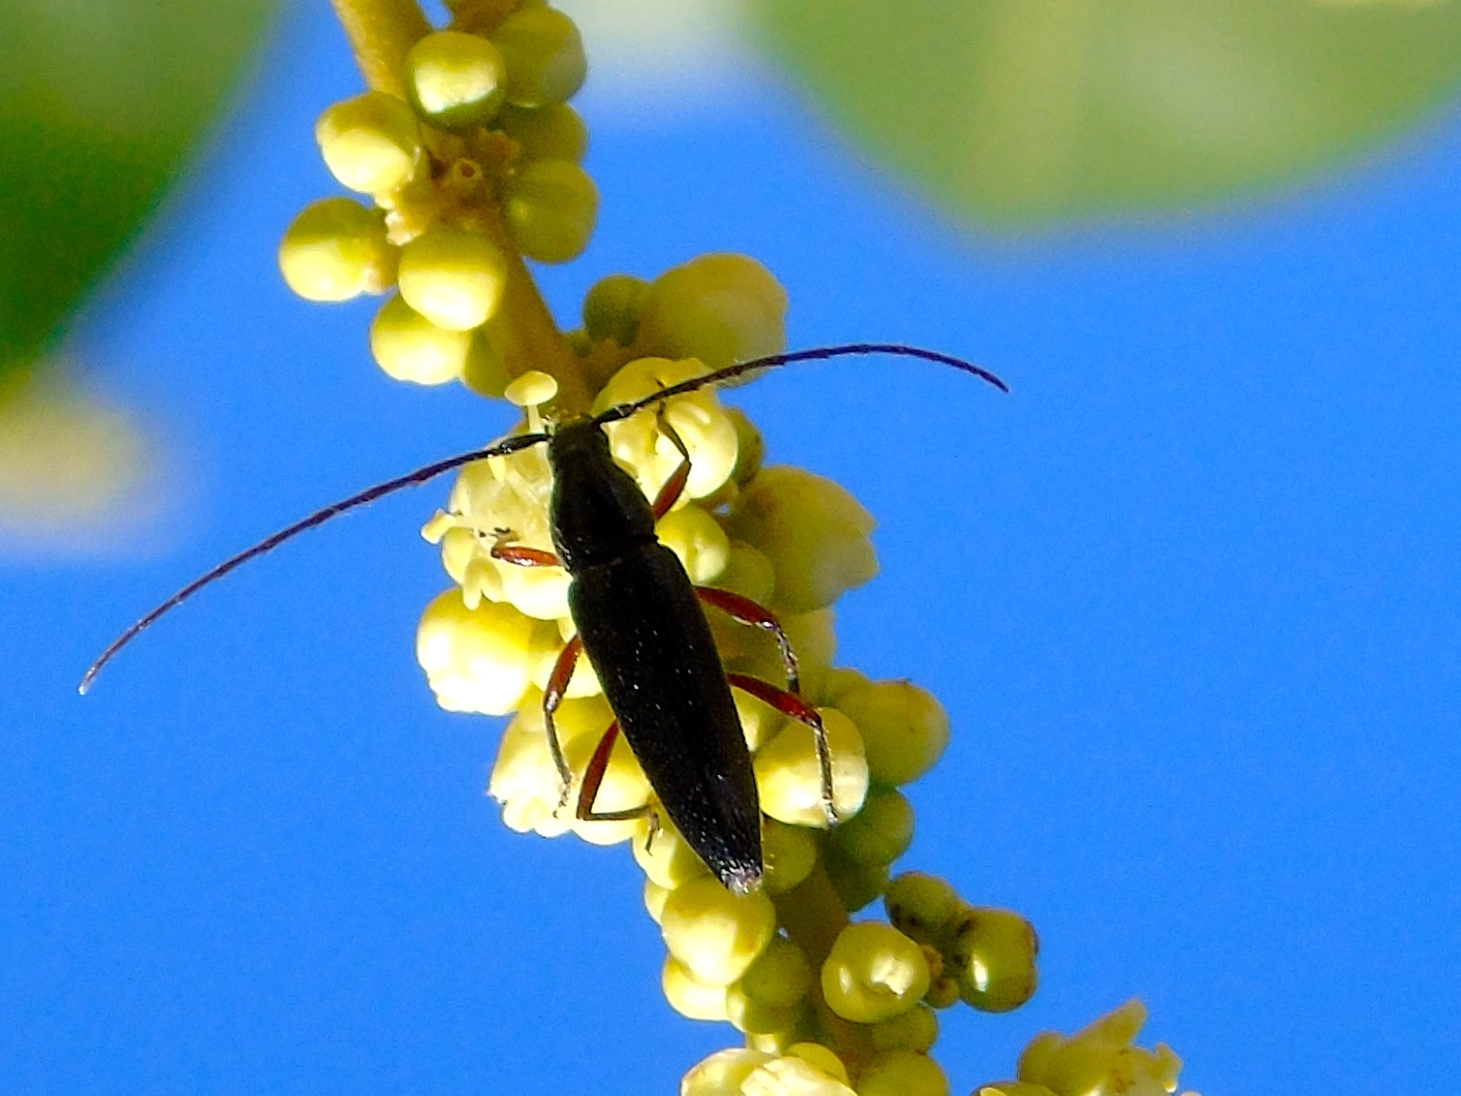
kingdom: Animalia
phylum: Arthropoda
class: Insecta
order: Coleoptera
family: Cerambycidae
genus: Stenosphenus
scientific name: Stenosphenus
